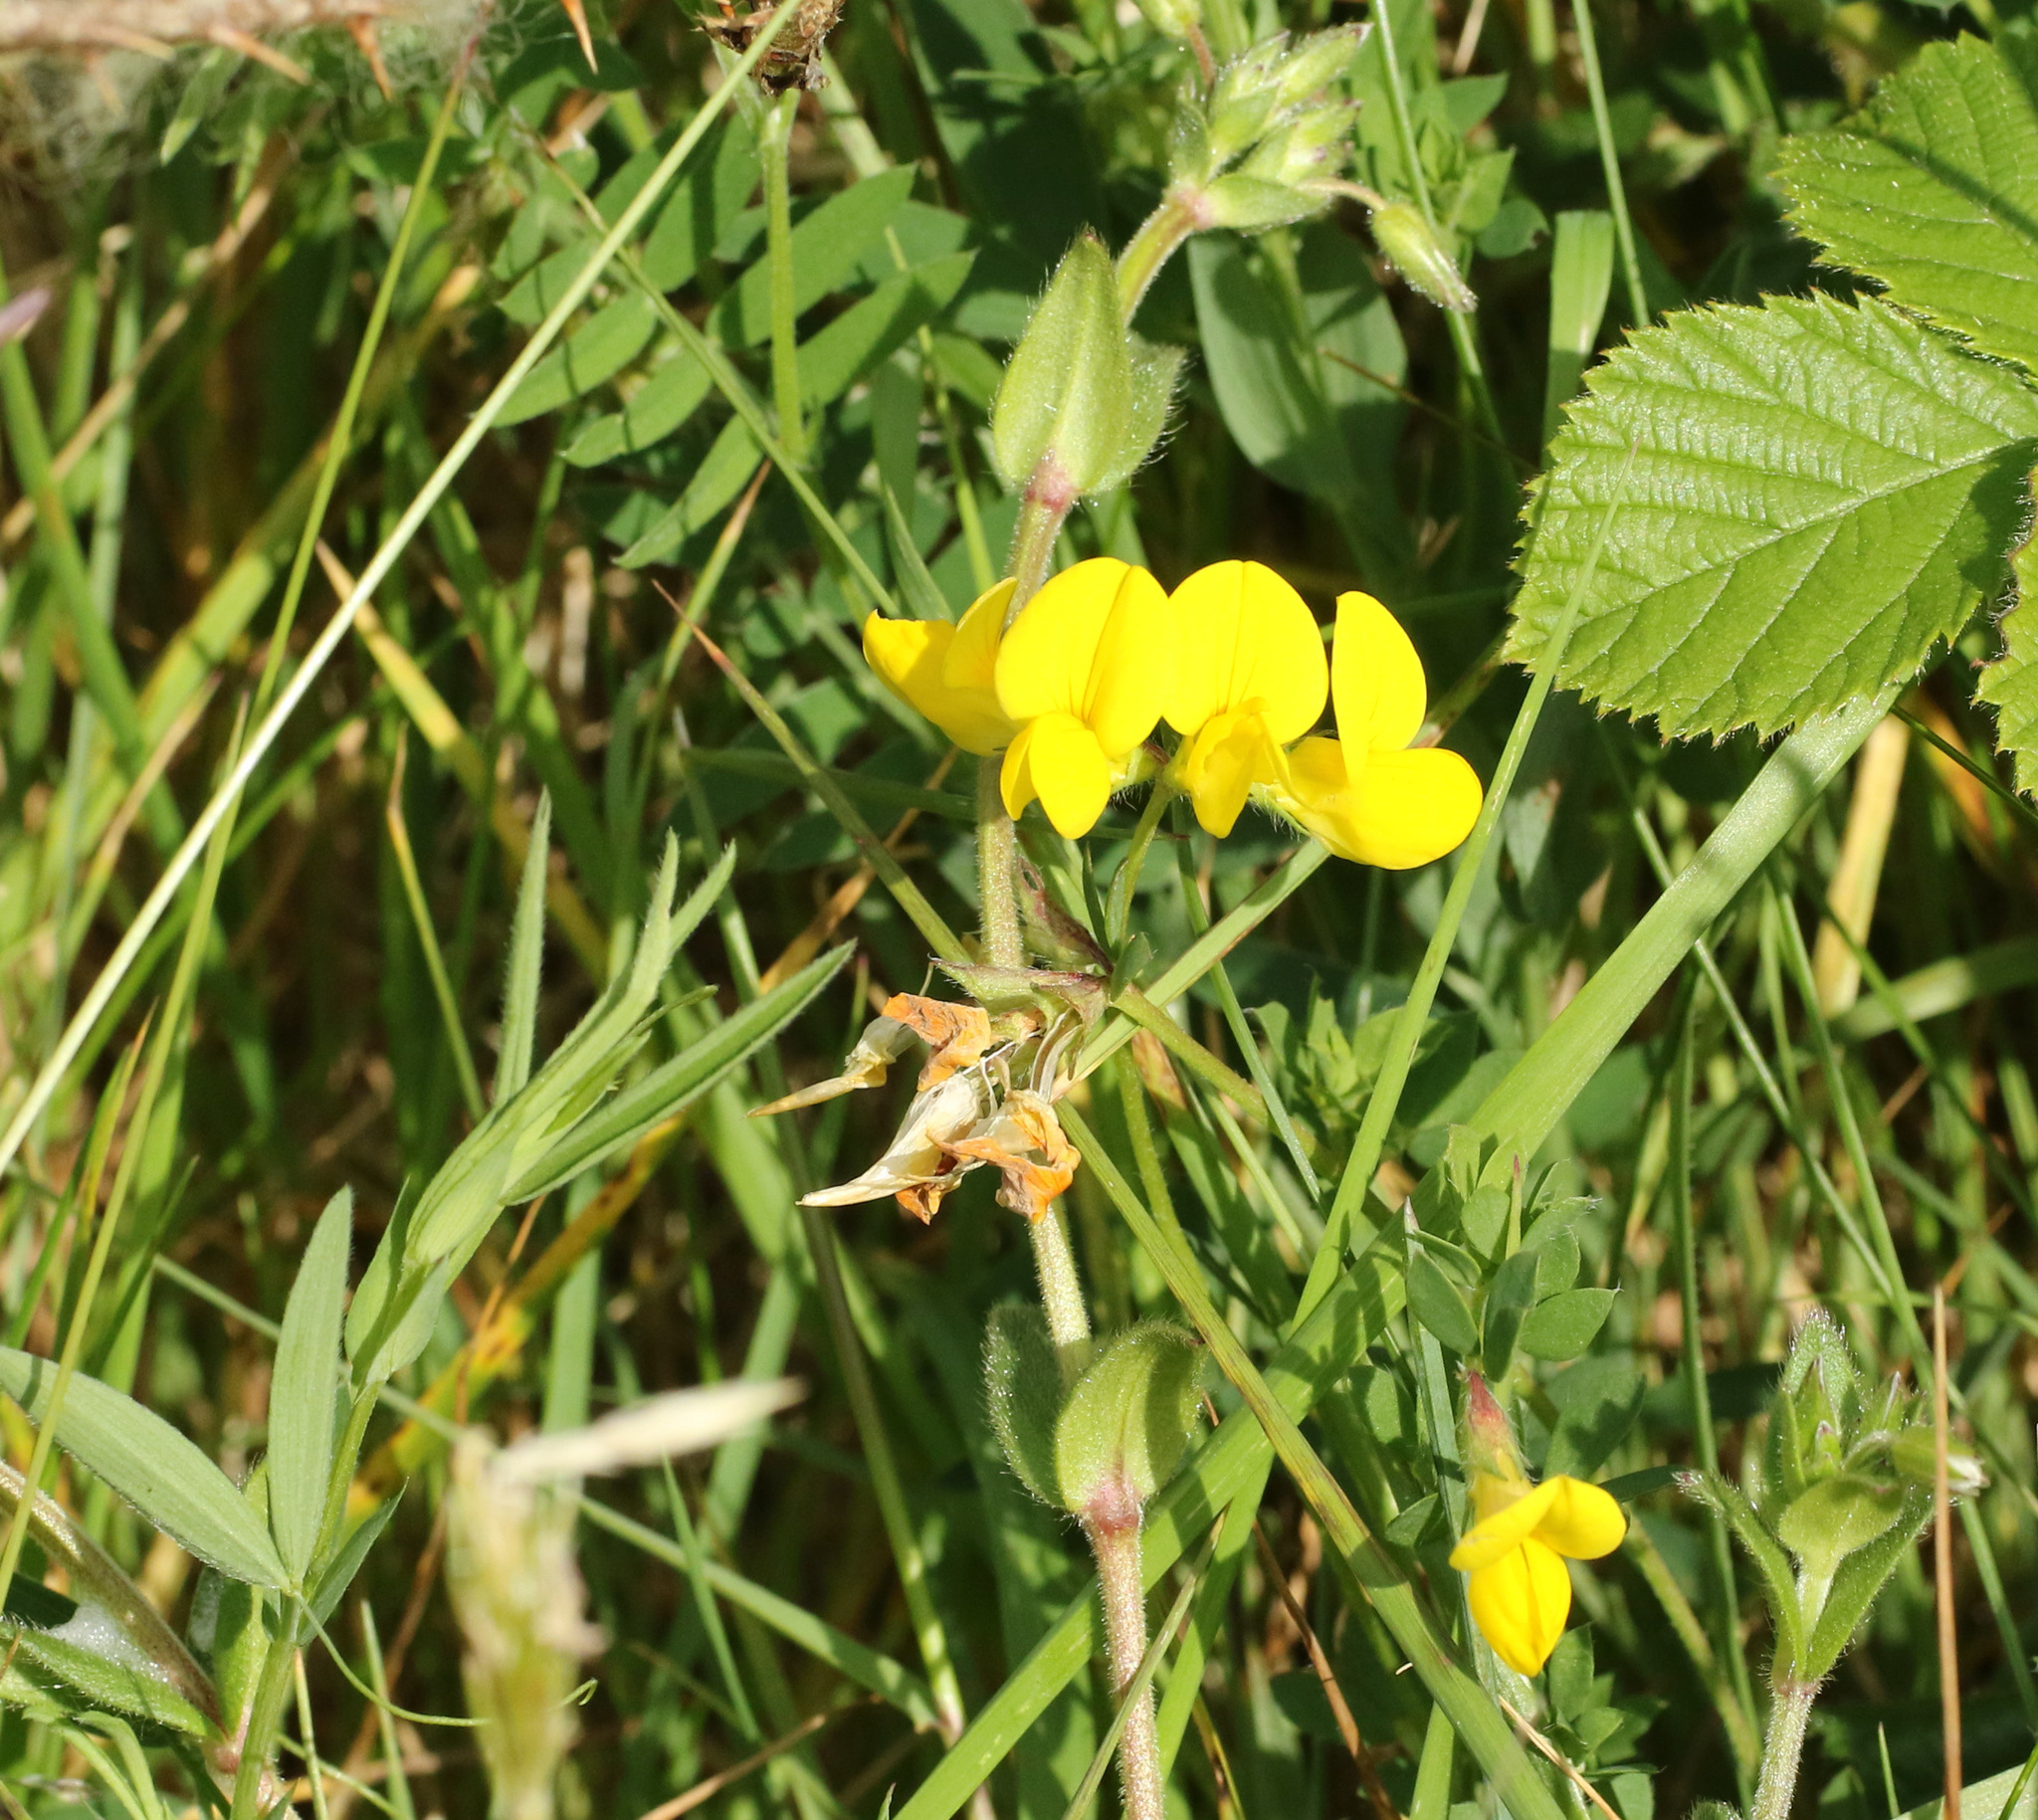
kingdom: Plantae
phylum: Tracheophyta
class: Magnoliopsida
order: Fabales
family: Fabaceae
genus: Lotus
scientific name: Lotus corniculatus
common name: Common bird's-foot-trefoil
